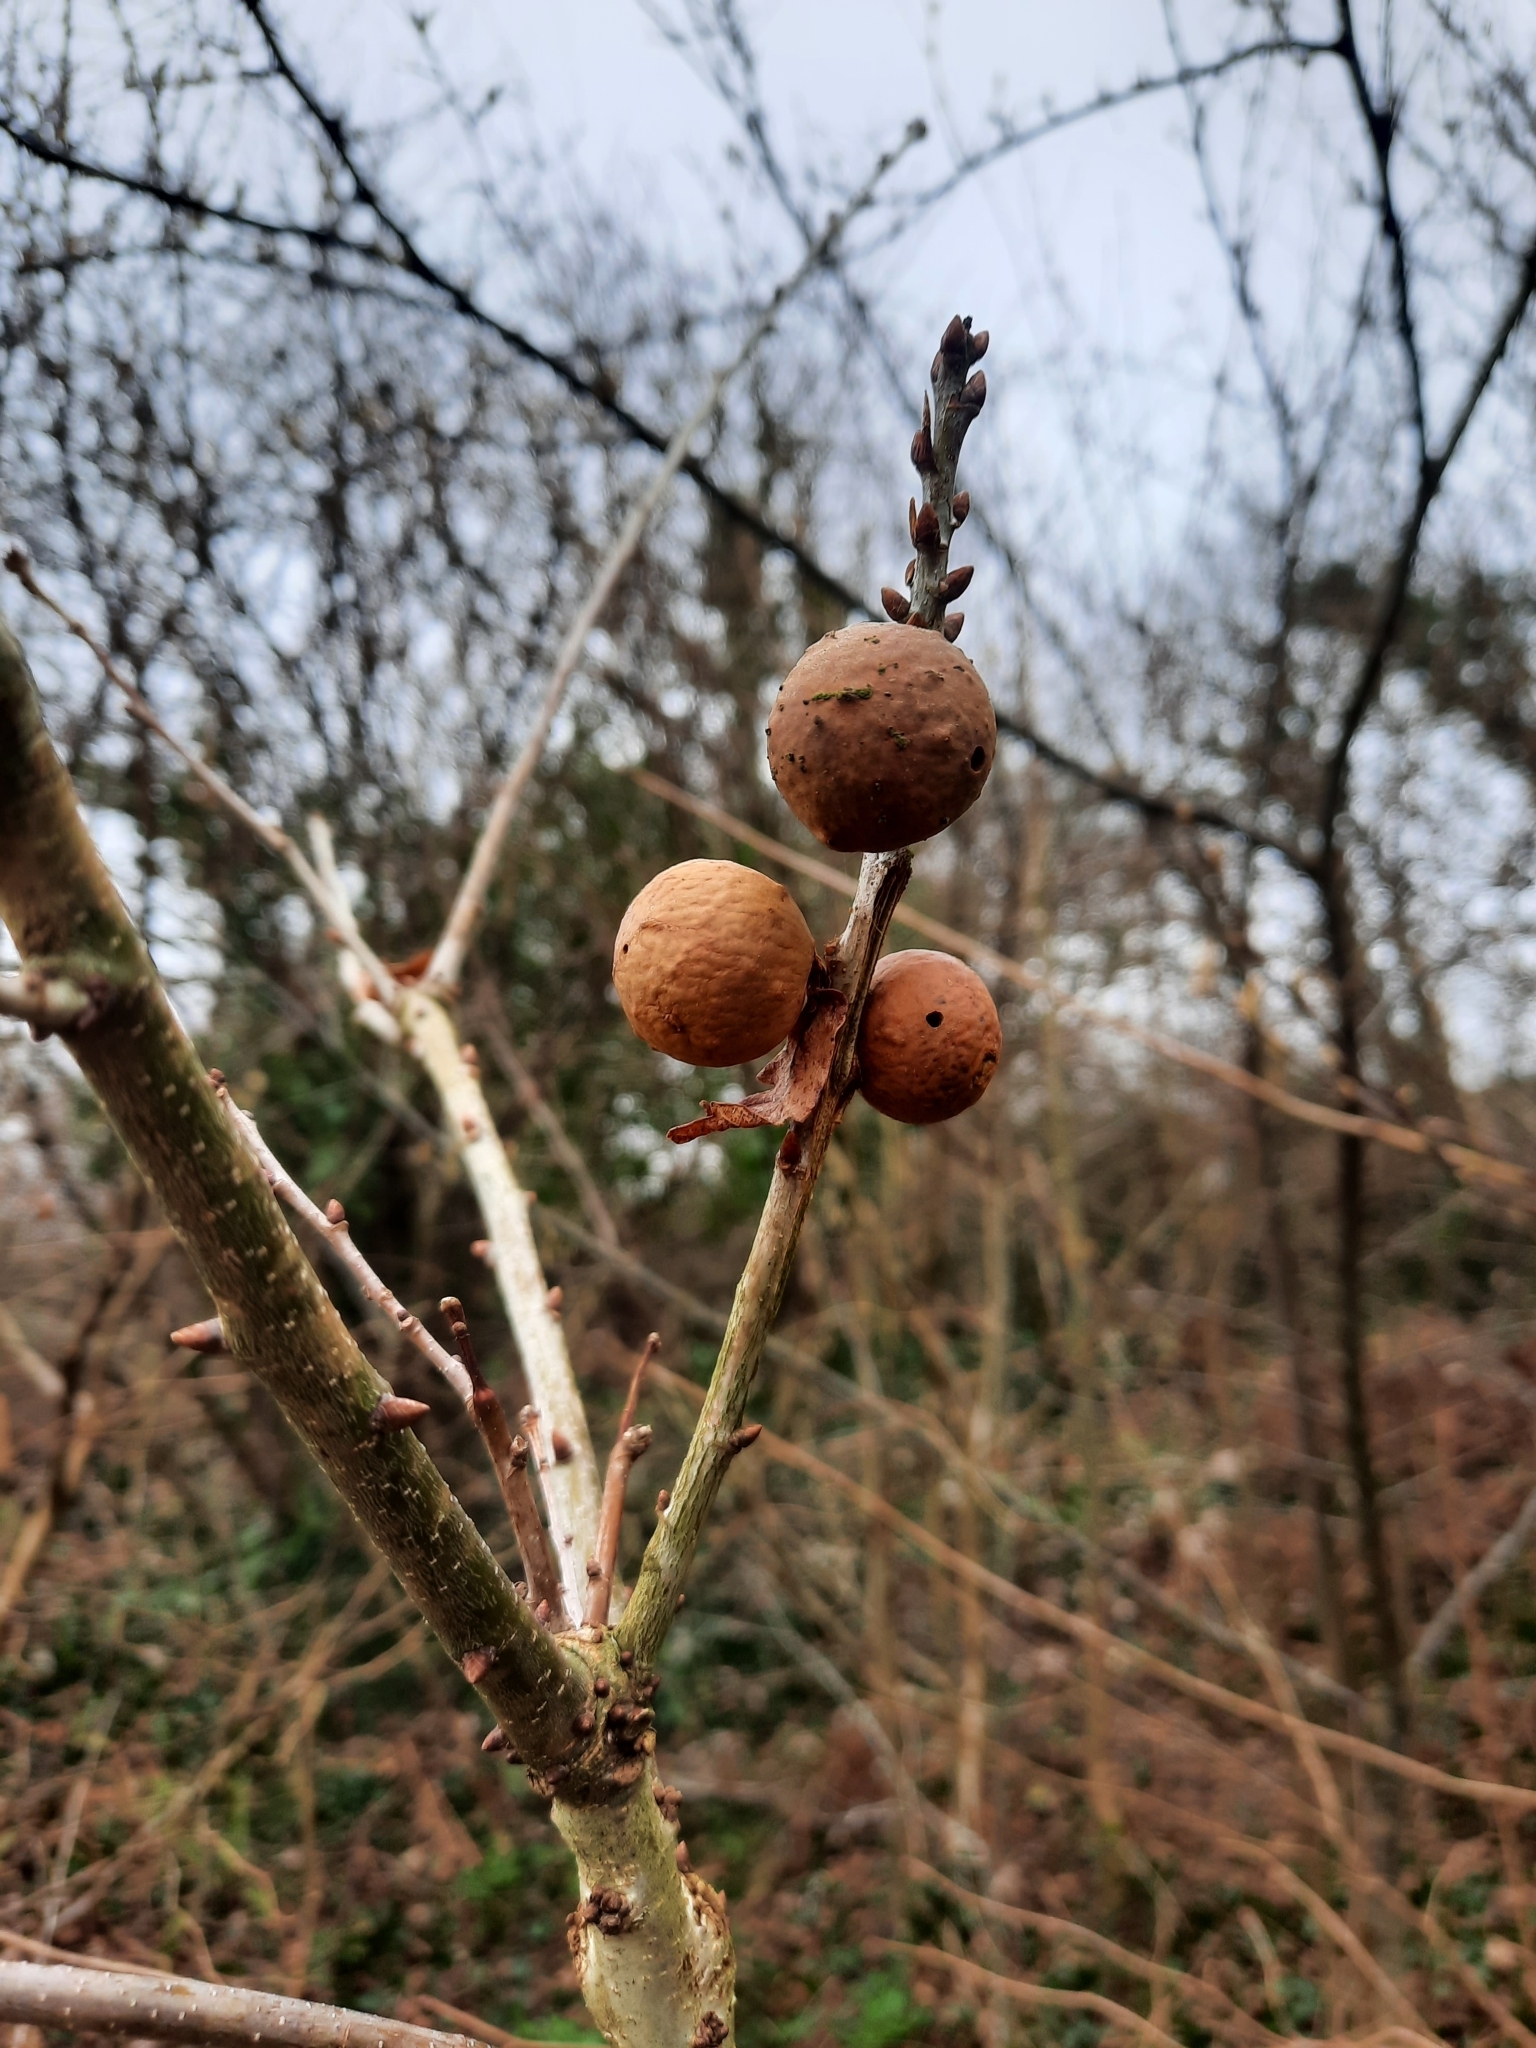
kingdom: Animalia
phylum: Arthropoda
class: Insecta
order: Hymenoptera
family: Cynipidae
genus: Andricus
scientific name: Andricus kollari
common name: Marble gall
